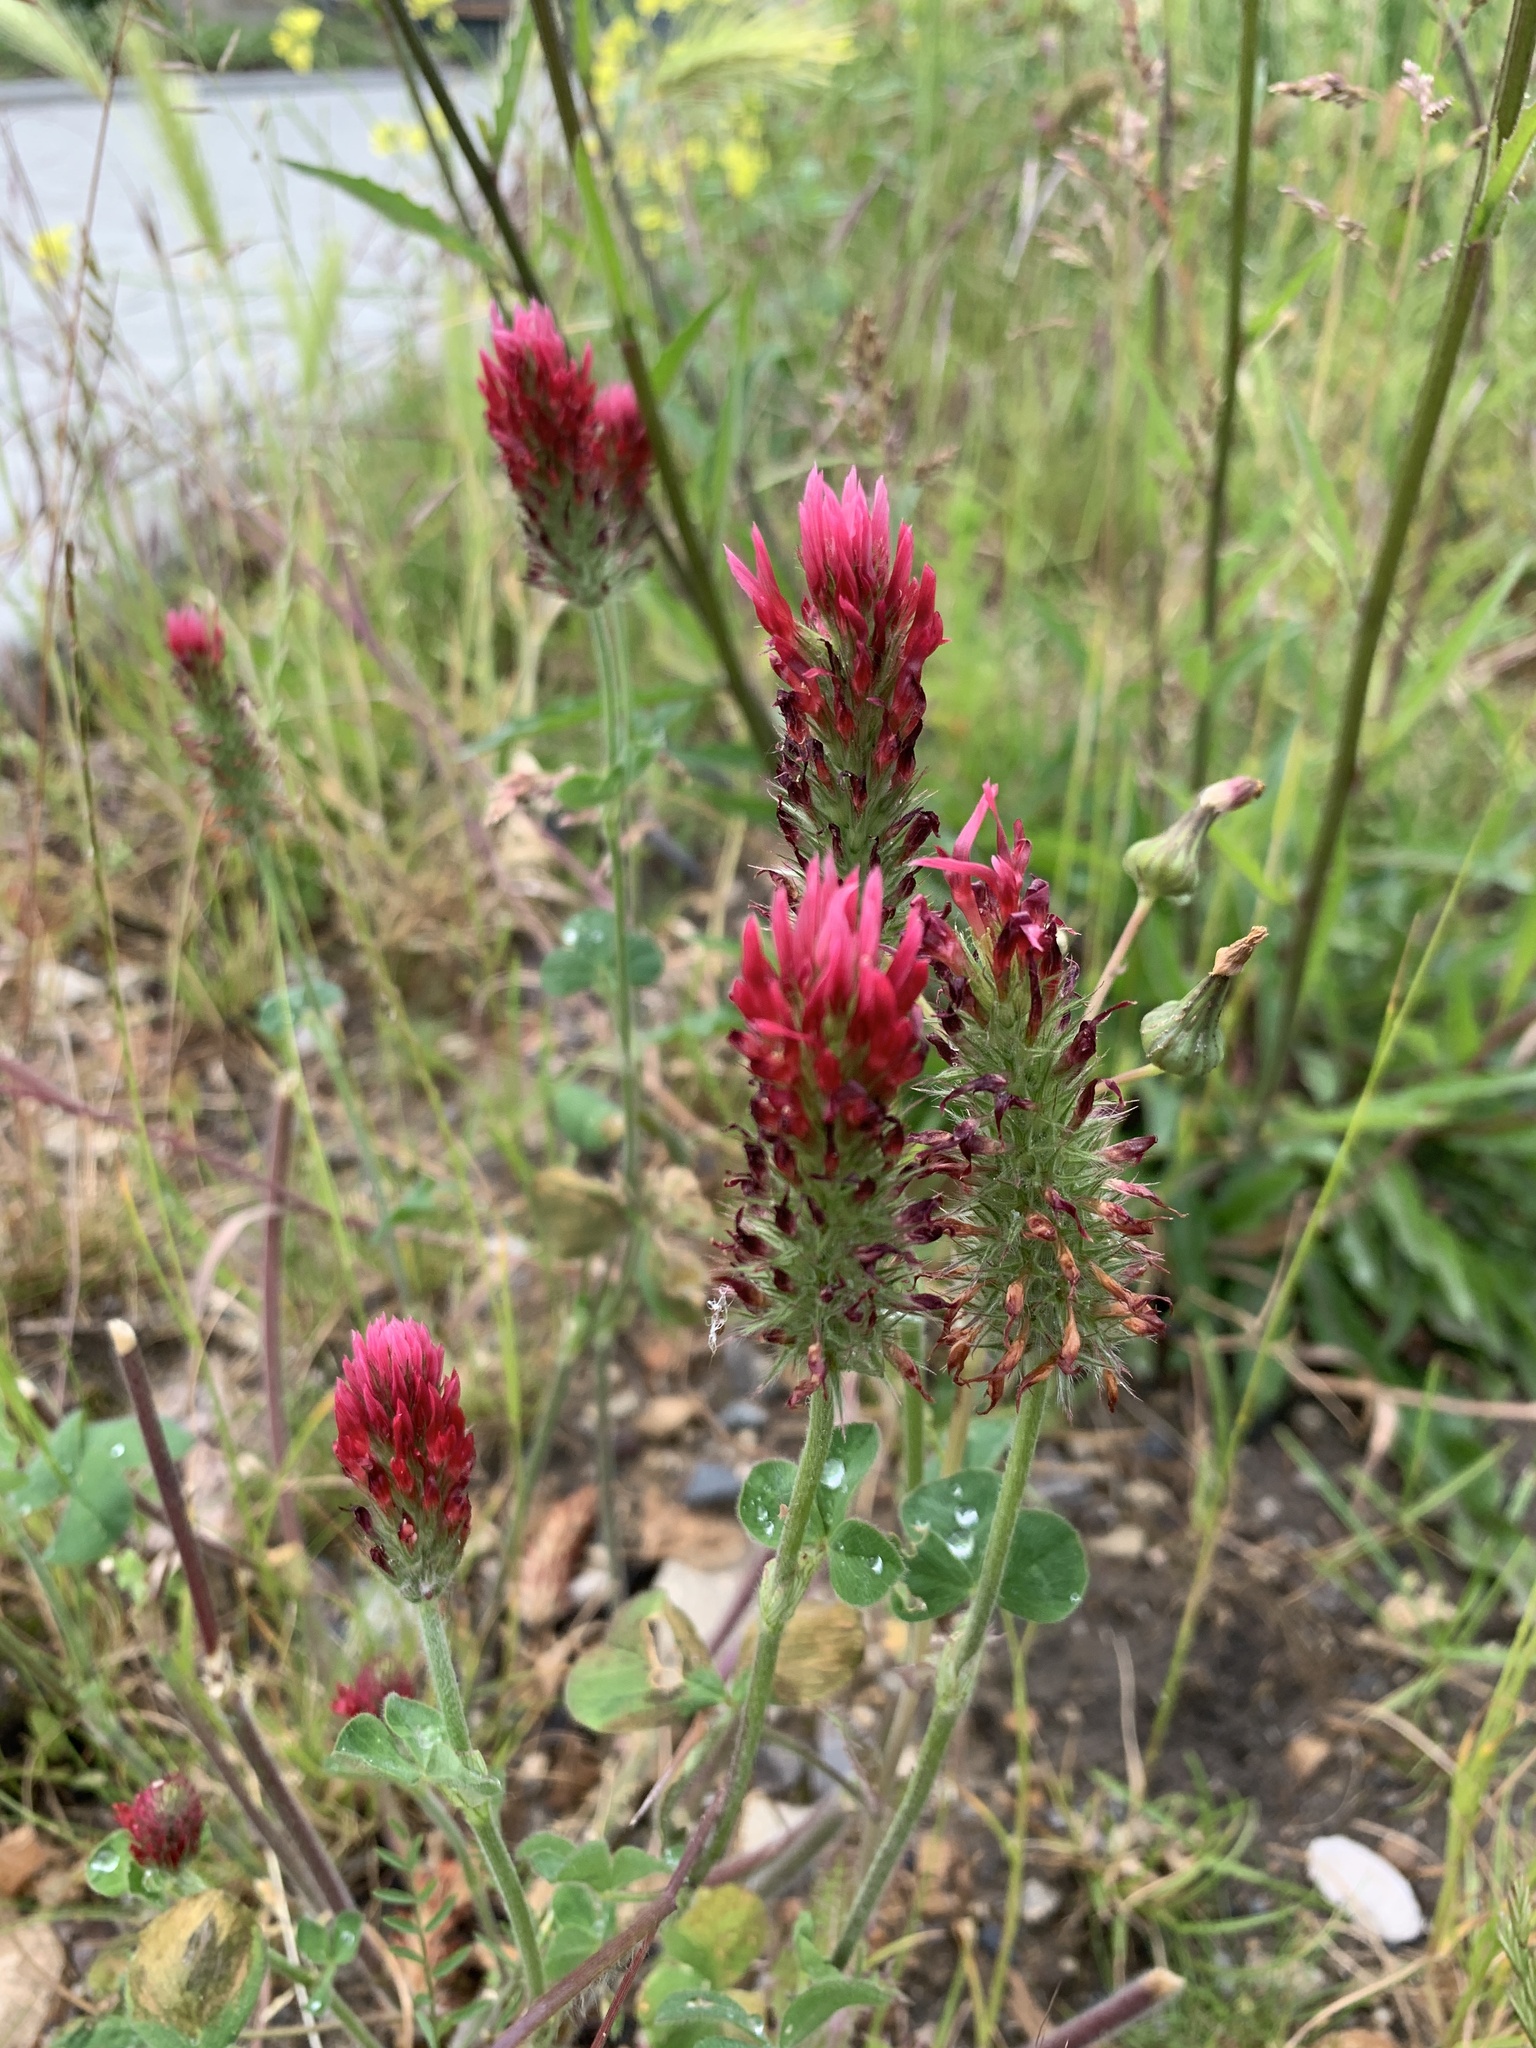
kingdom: Plantae
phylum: Tracheophyta
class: Magnoliopsida
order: Fabales
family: Fabaceae
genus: Trifolium
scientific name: Trifolium incarnatum
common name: Crimson clover
